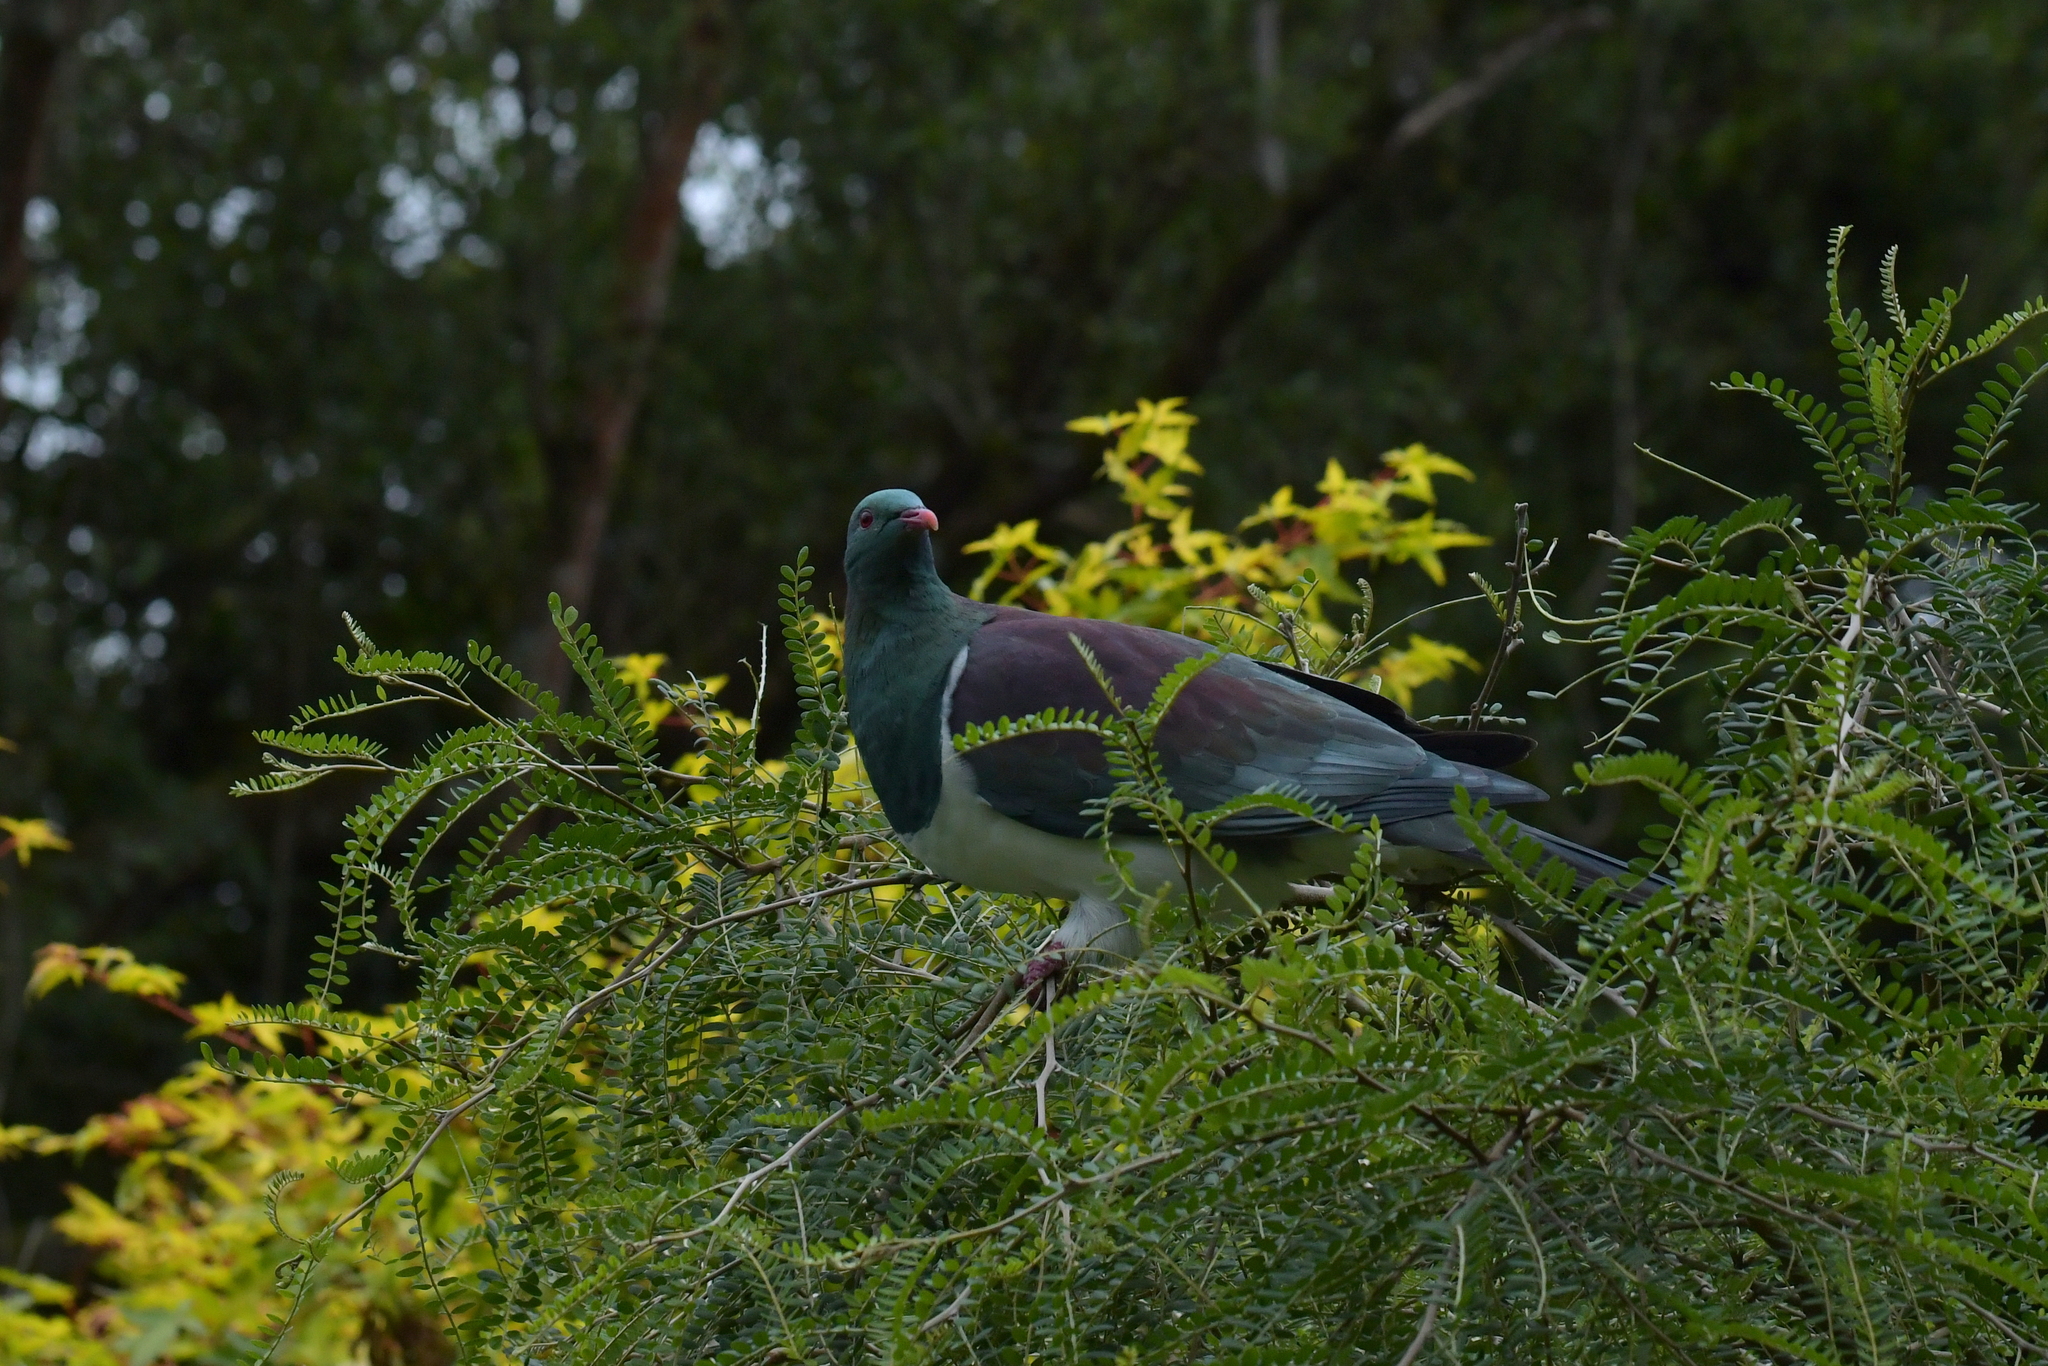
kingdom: Animalia
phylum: Chordata
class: Aves
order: Columbiformes
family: Columbidae
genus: Hemiphaga
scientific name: Hemiphaga novaeseelandiae
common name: New zealand pigeon
